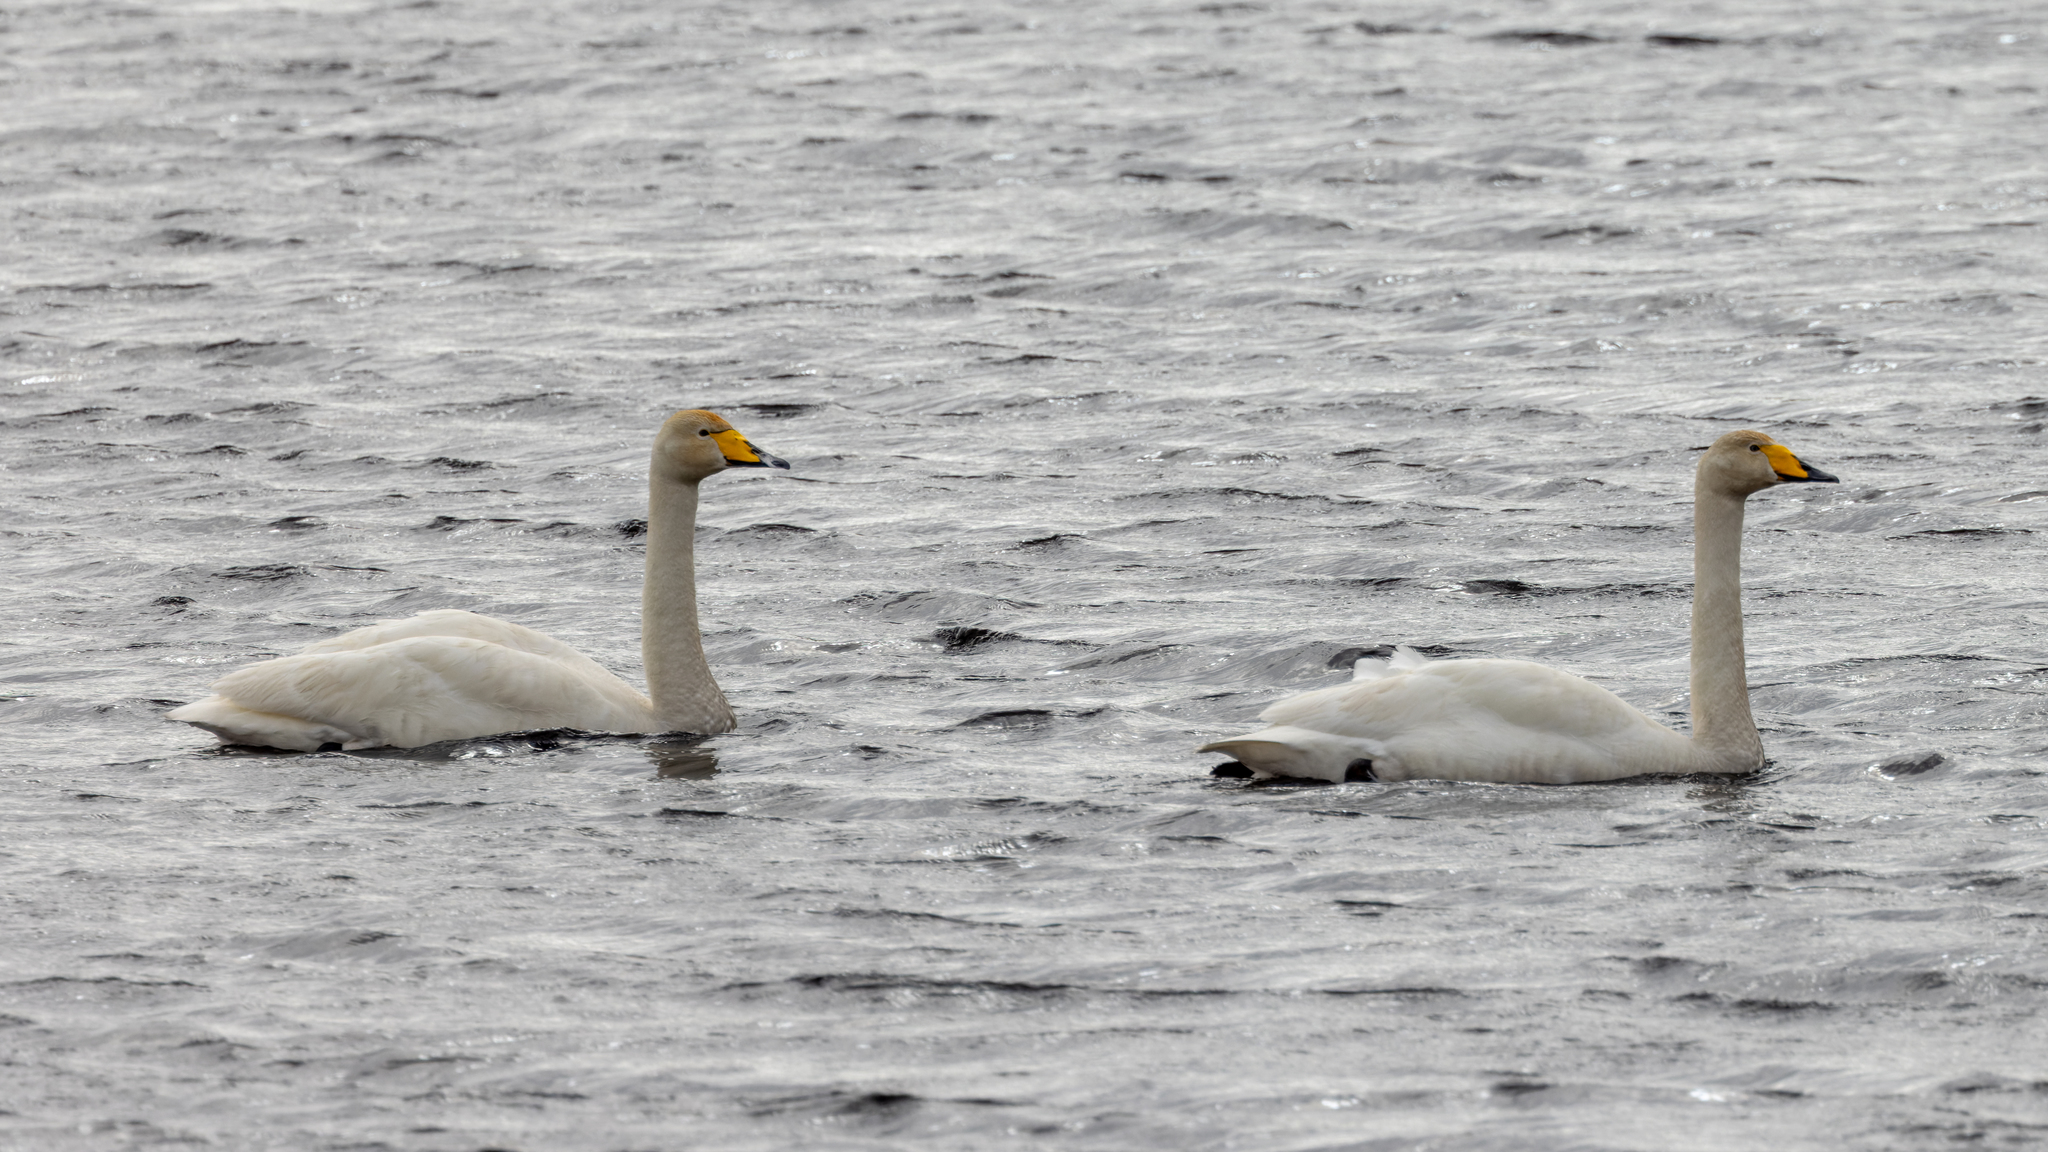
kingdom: Animalia
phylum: Chordata
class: Aves
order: Anseriformes
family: Anatidae
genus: Cygnus
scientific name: Cygnus cygnus
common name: Whooper swan
